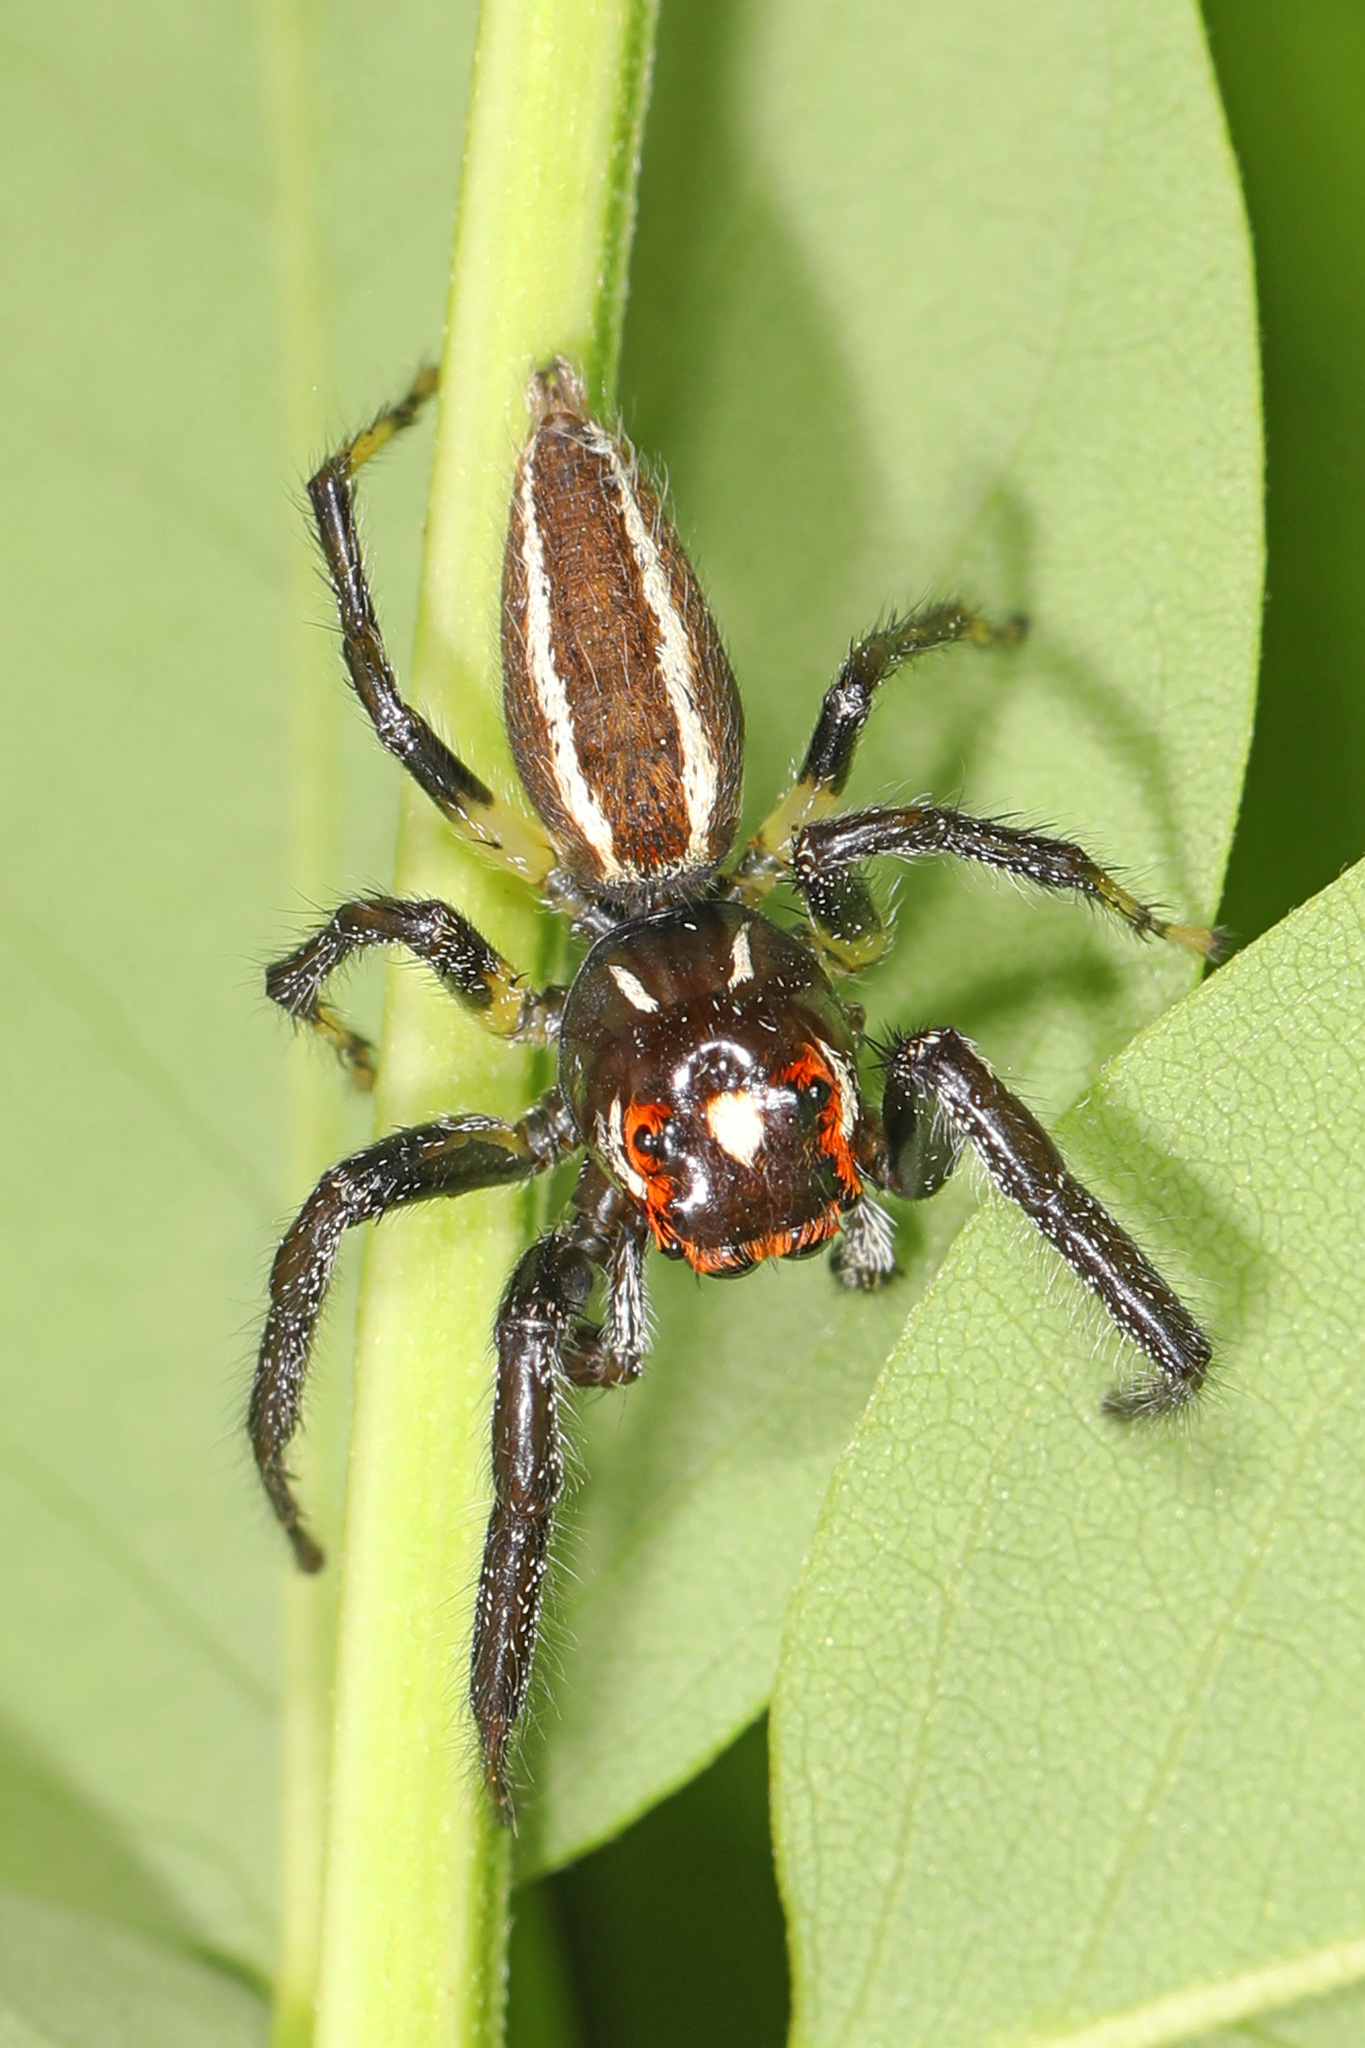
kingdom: Animalia
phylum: Arthropoda
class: Arachnida
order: Araneae
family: Salticidae
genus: Colonus
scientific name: Colonus sylvanus
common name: Jumping spiders
